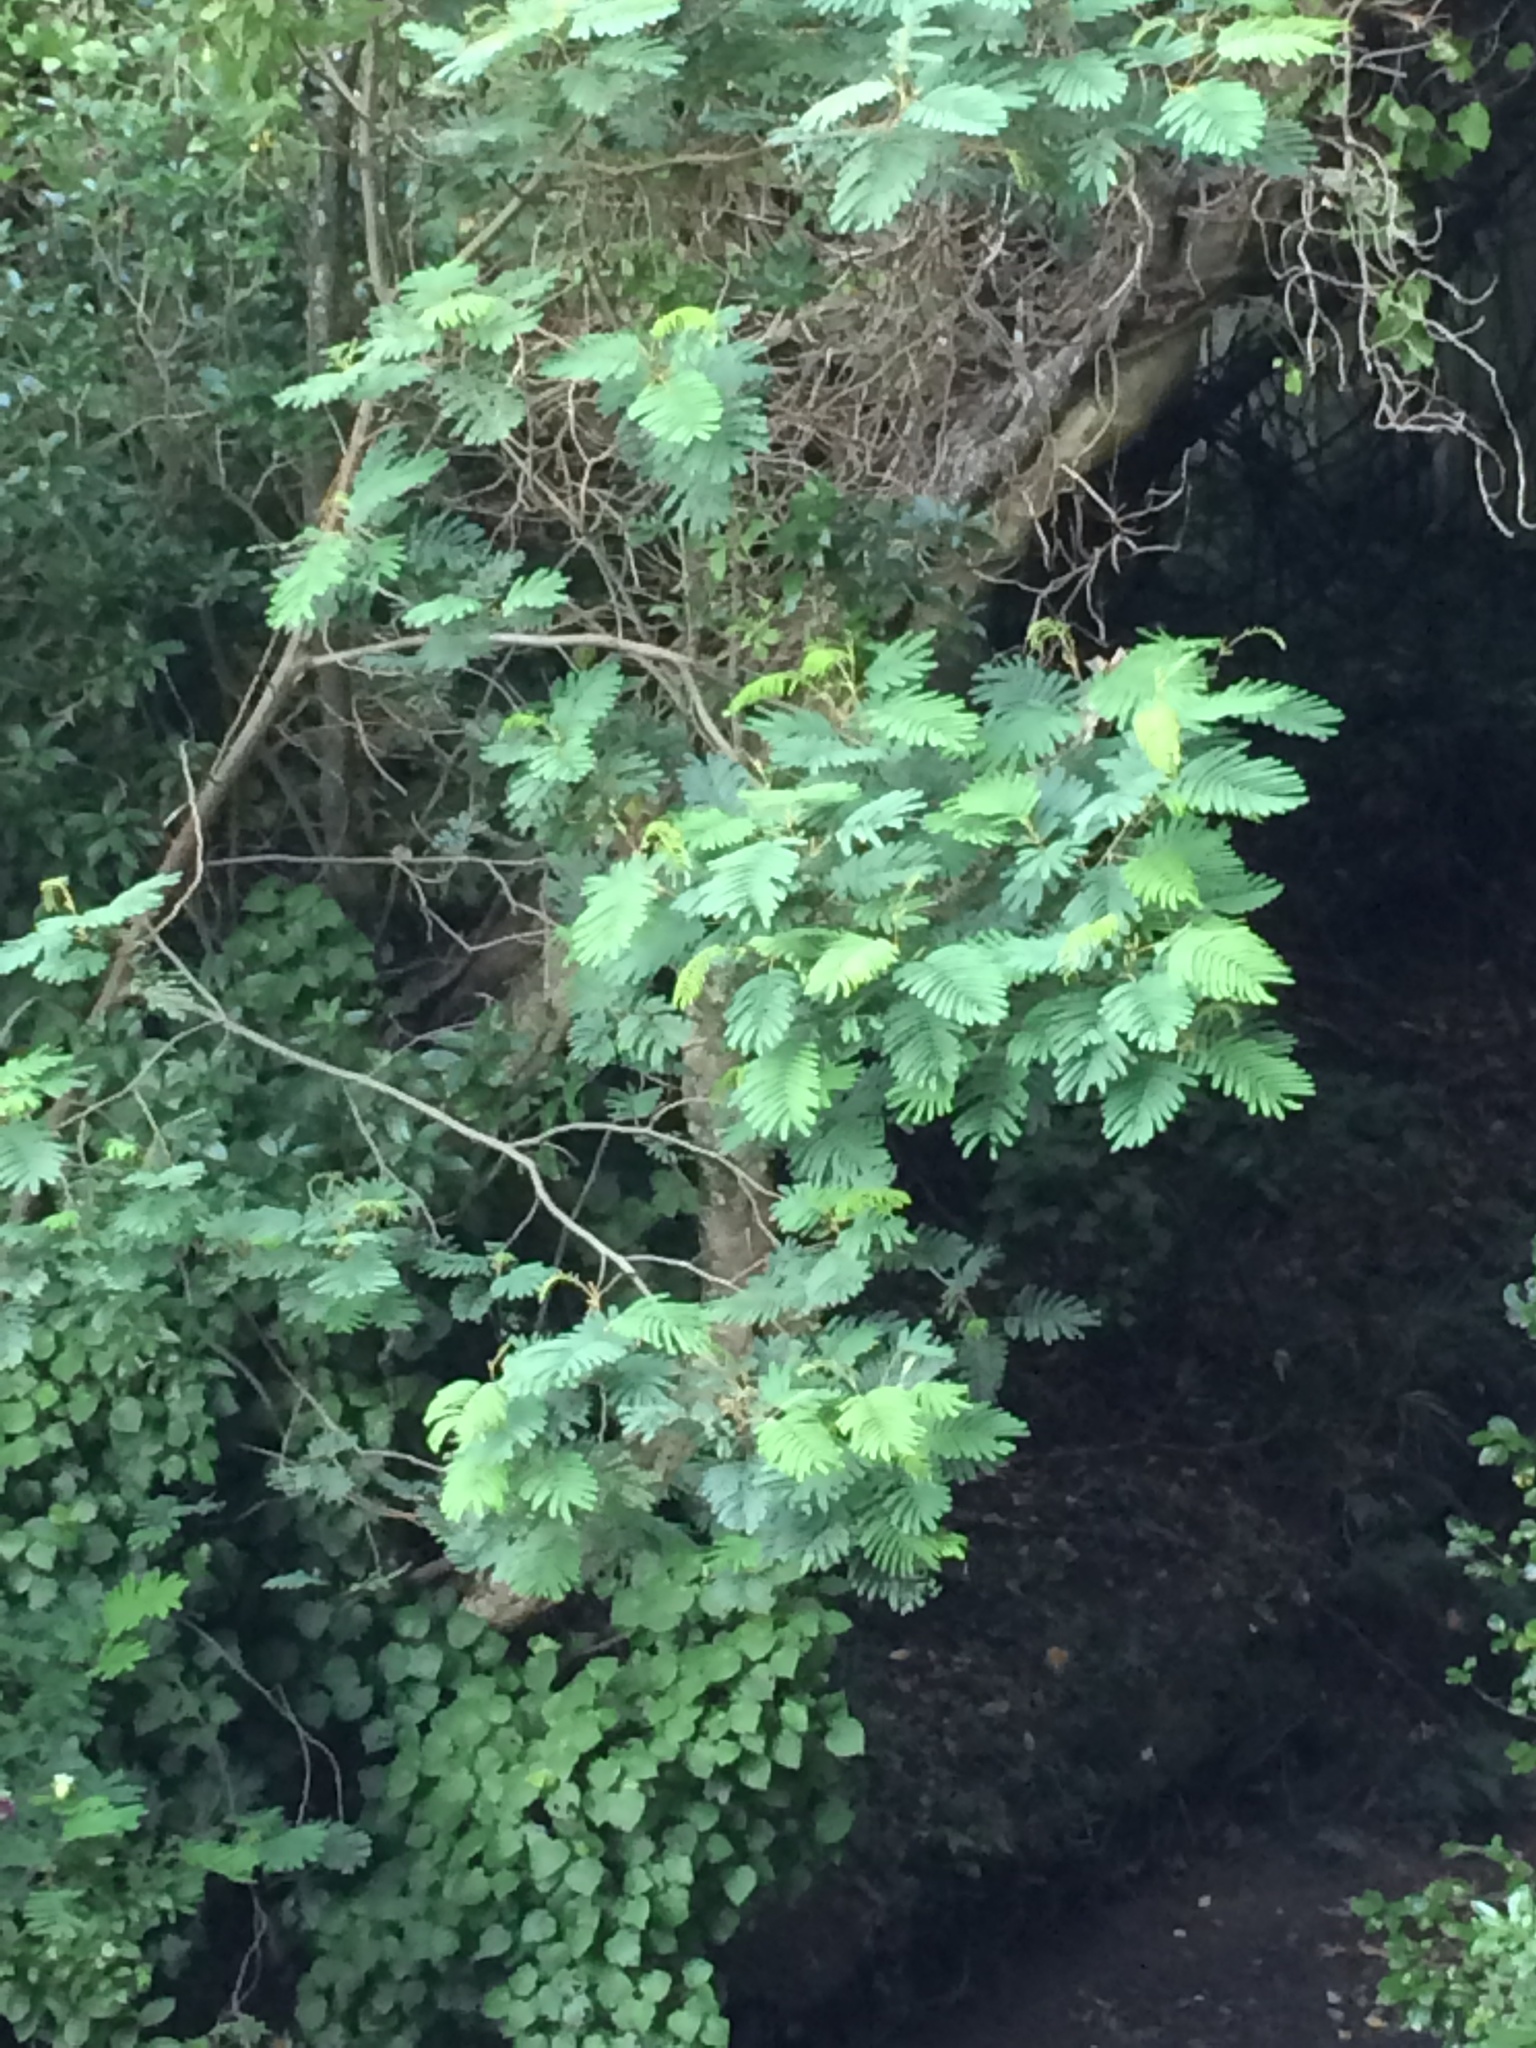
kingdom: Plantae
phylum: Tracheophyta
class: Magnoliopsida
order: Fabales
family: Fabaceae
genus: Paraserianthes
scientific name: Paraserianthes lophantha
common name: Plume albizia
